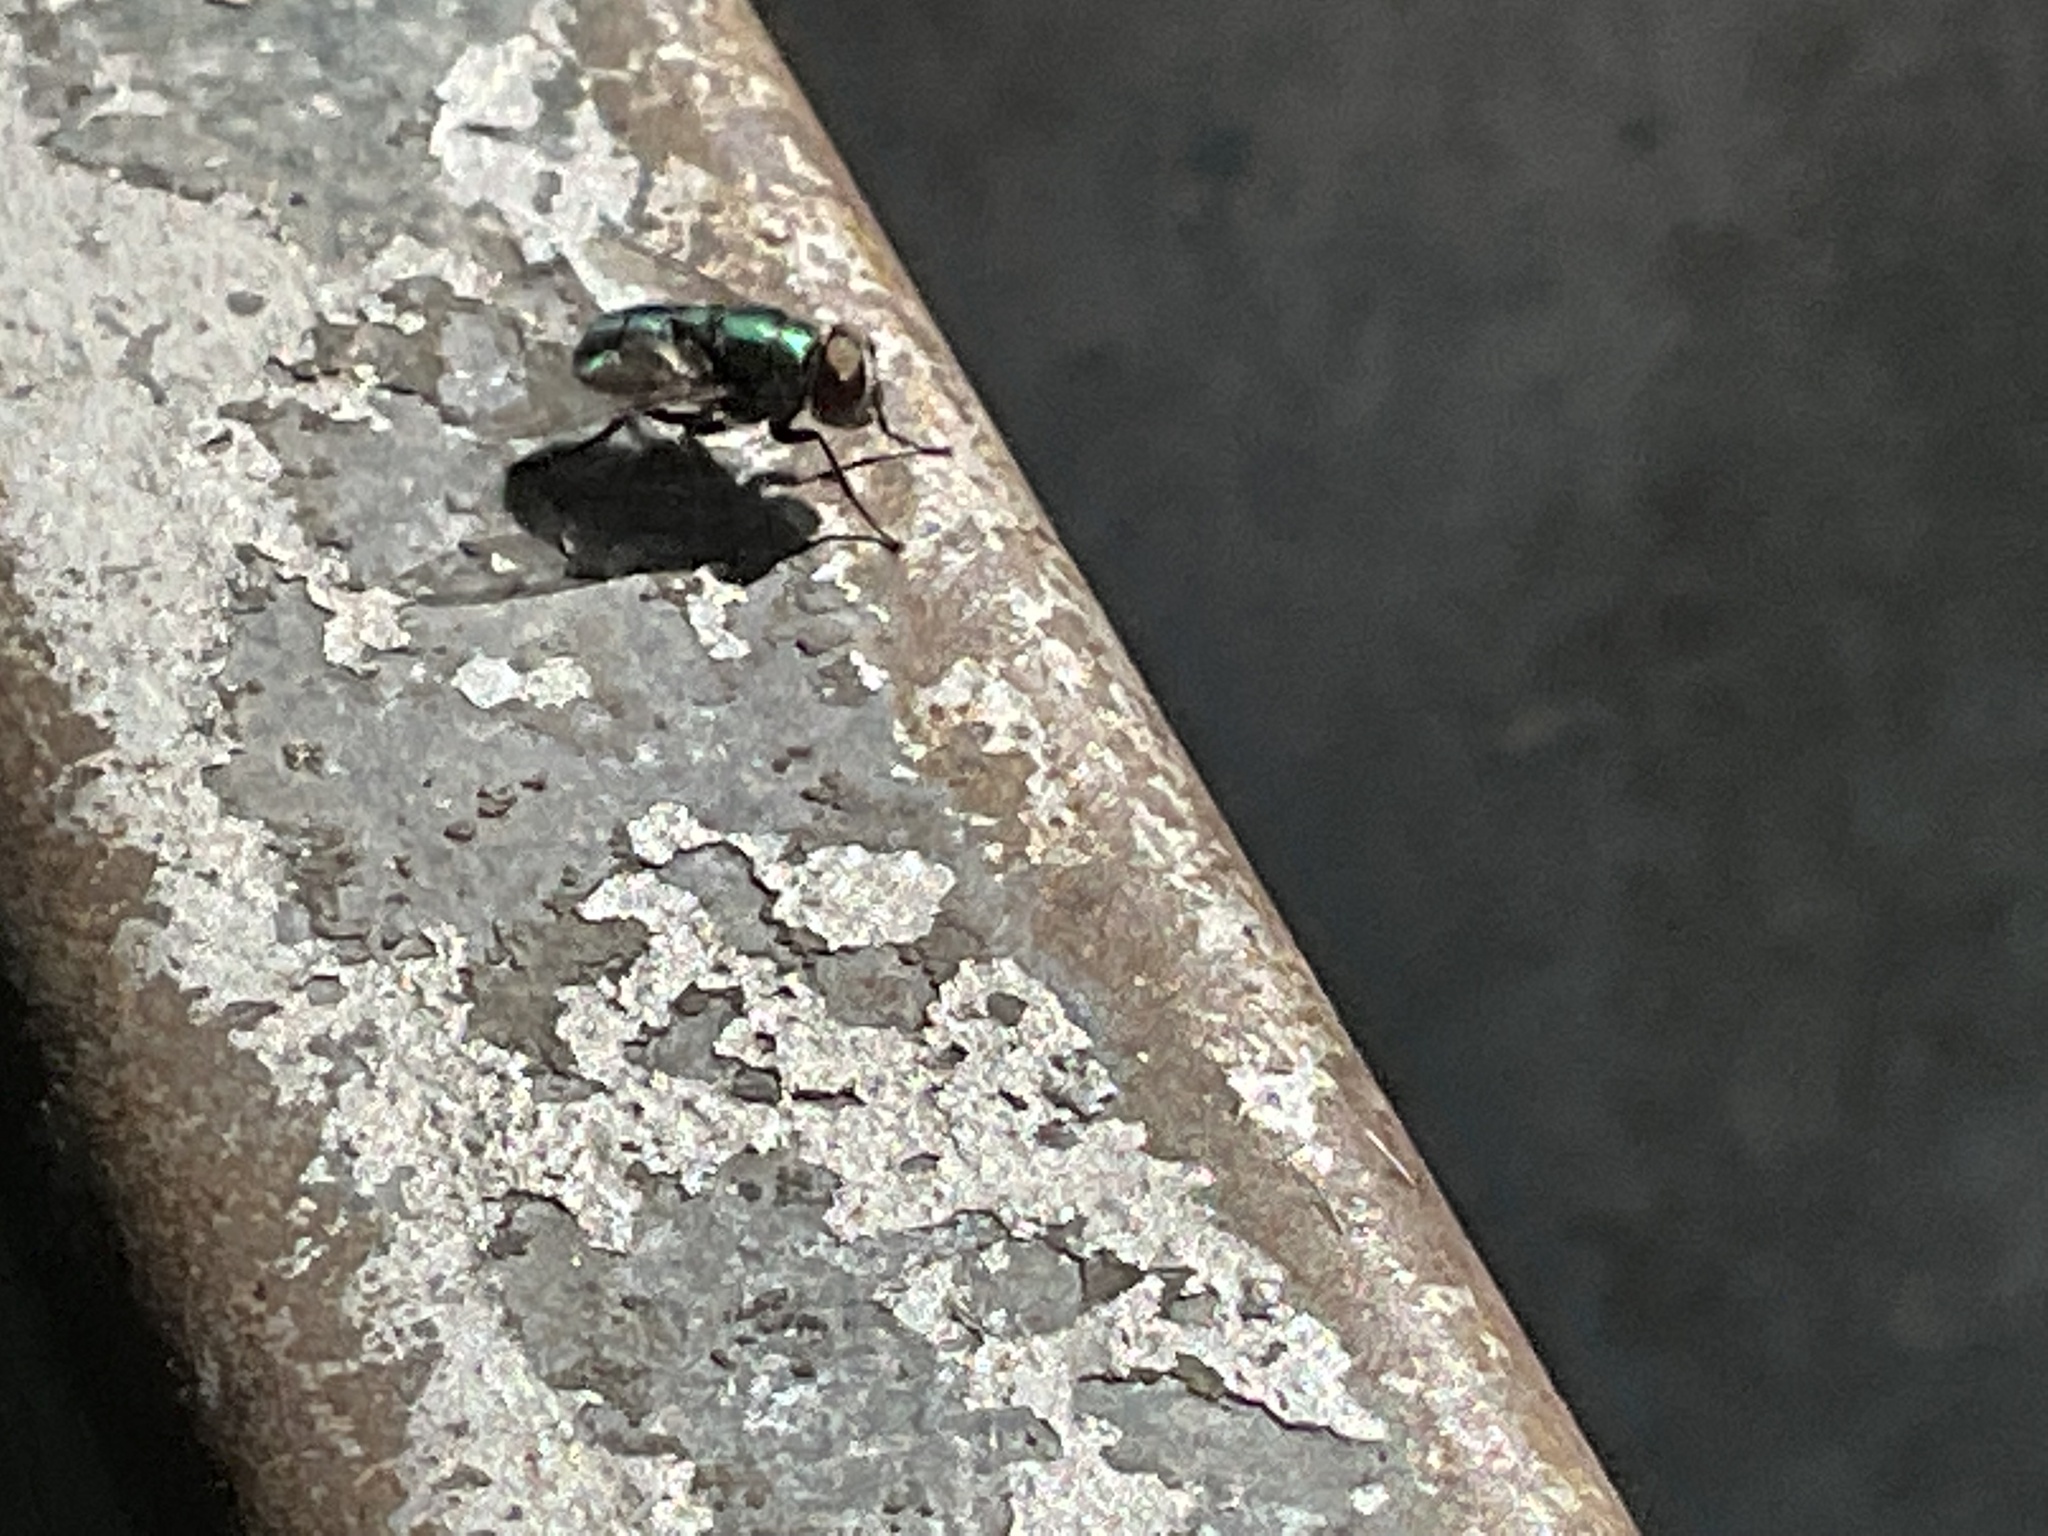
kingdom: Animalia
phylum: Arthropoda
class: Insecta
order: Diptera
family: Calliphoridae
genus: Chrysomya
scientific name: Chrysomya albiceps
